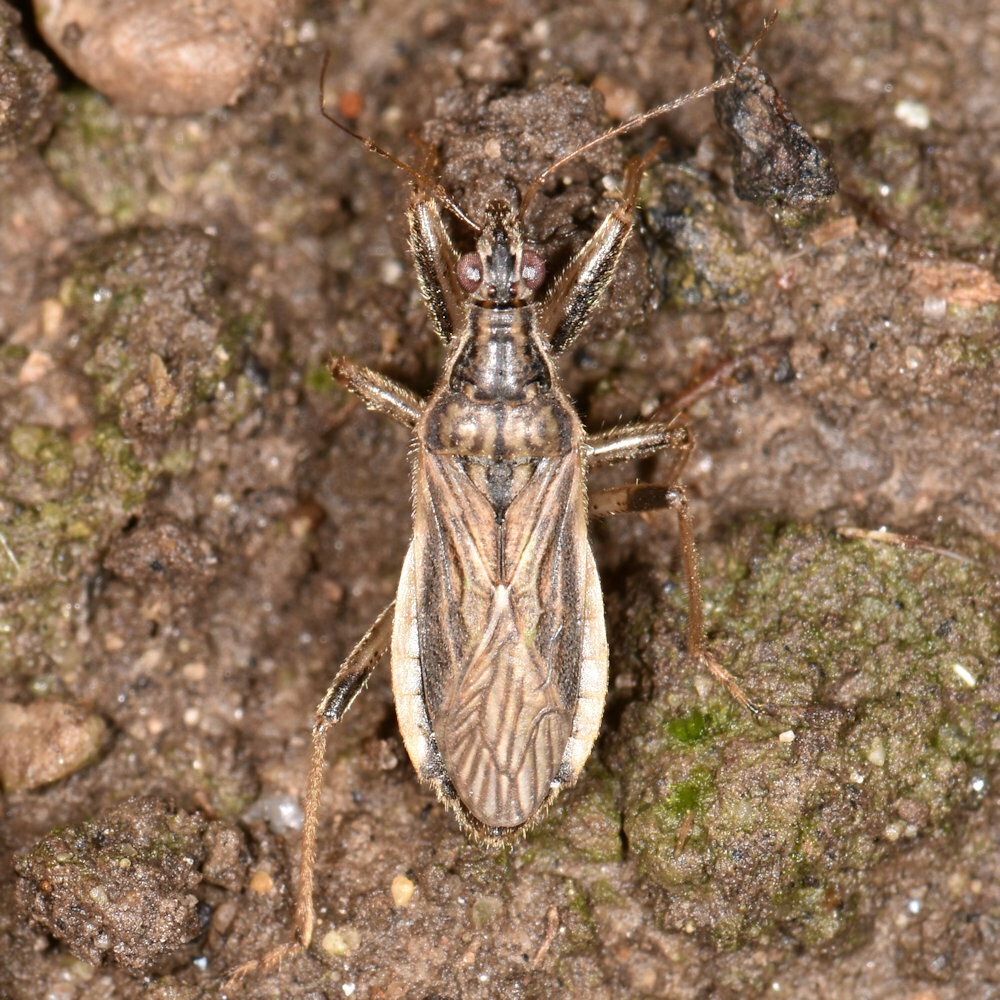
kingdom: Animalia
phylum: Arthropoda
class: Insecta
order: Hemiptera
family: Nabidae
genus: Himacerus
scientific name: Himacerus major
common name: Damsel bug
